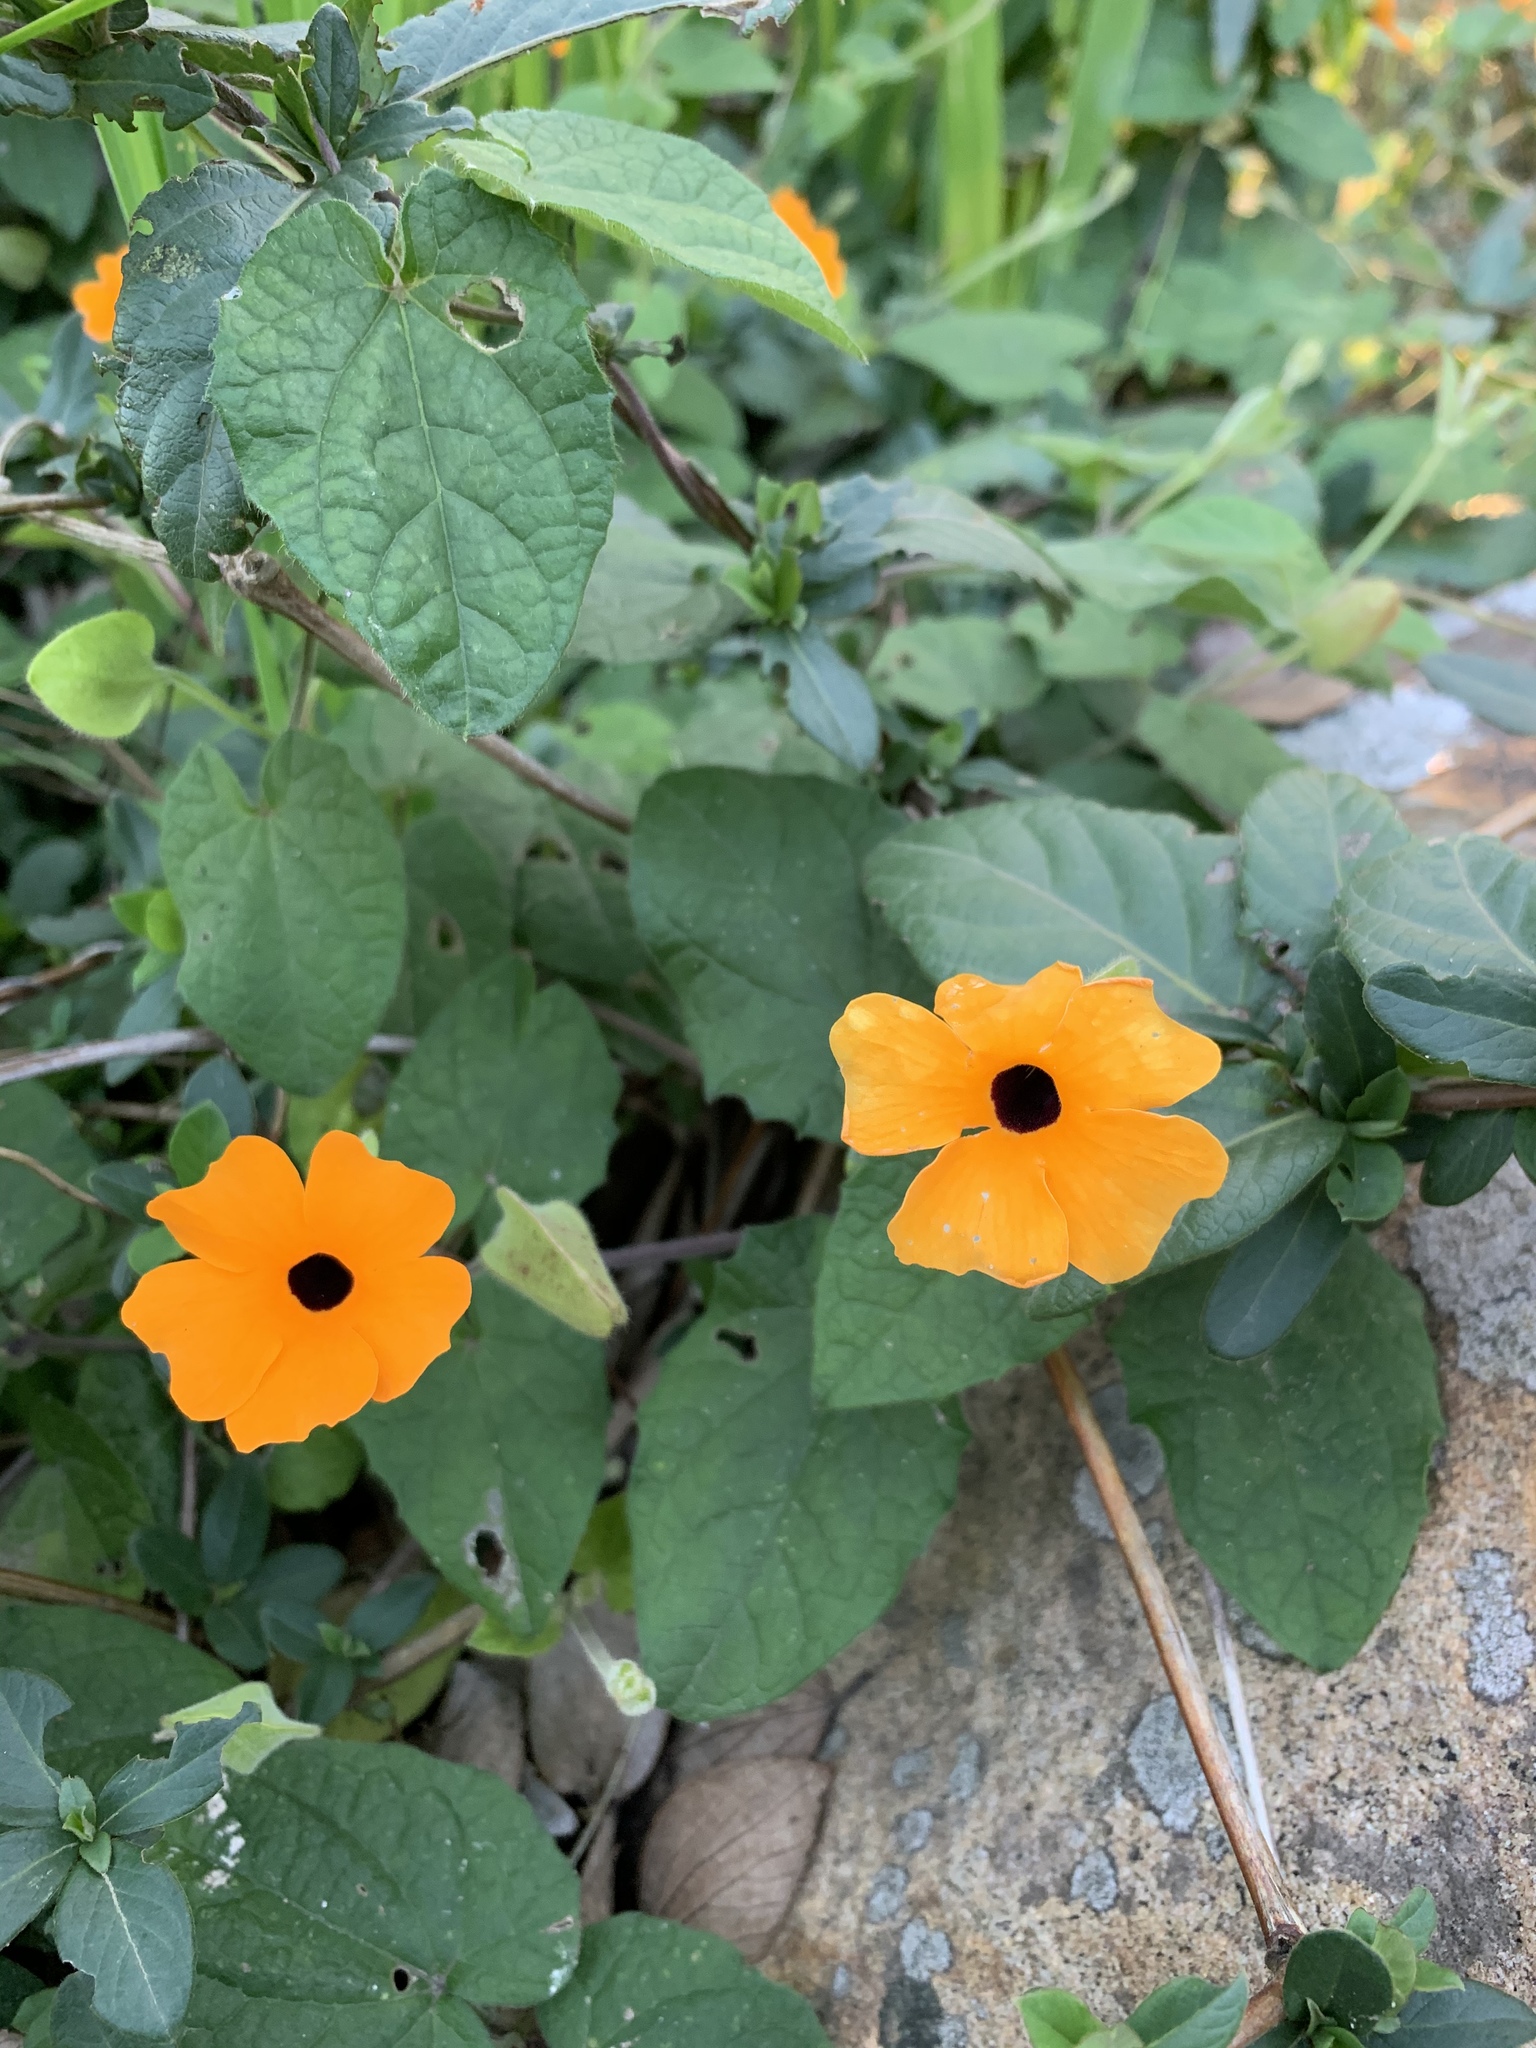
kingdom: Plantae
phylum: Tracheophyta
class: Magnoliopsida
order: Lamiales
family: Acanthaceae
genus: Thunbergia
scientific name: Thunbergia alata
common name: Blackeyed susan vine
